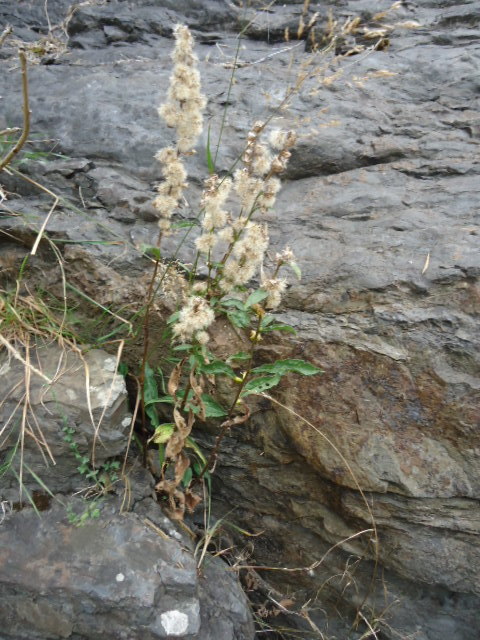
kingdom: Plantae
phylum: Tracheophyta
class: Magnoliopsida
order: Asterales
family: Asteraceae
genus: Solidago
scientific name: Solidago virgaurea
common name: Goldenrod
